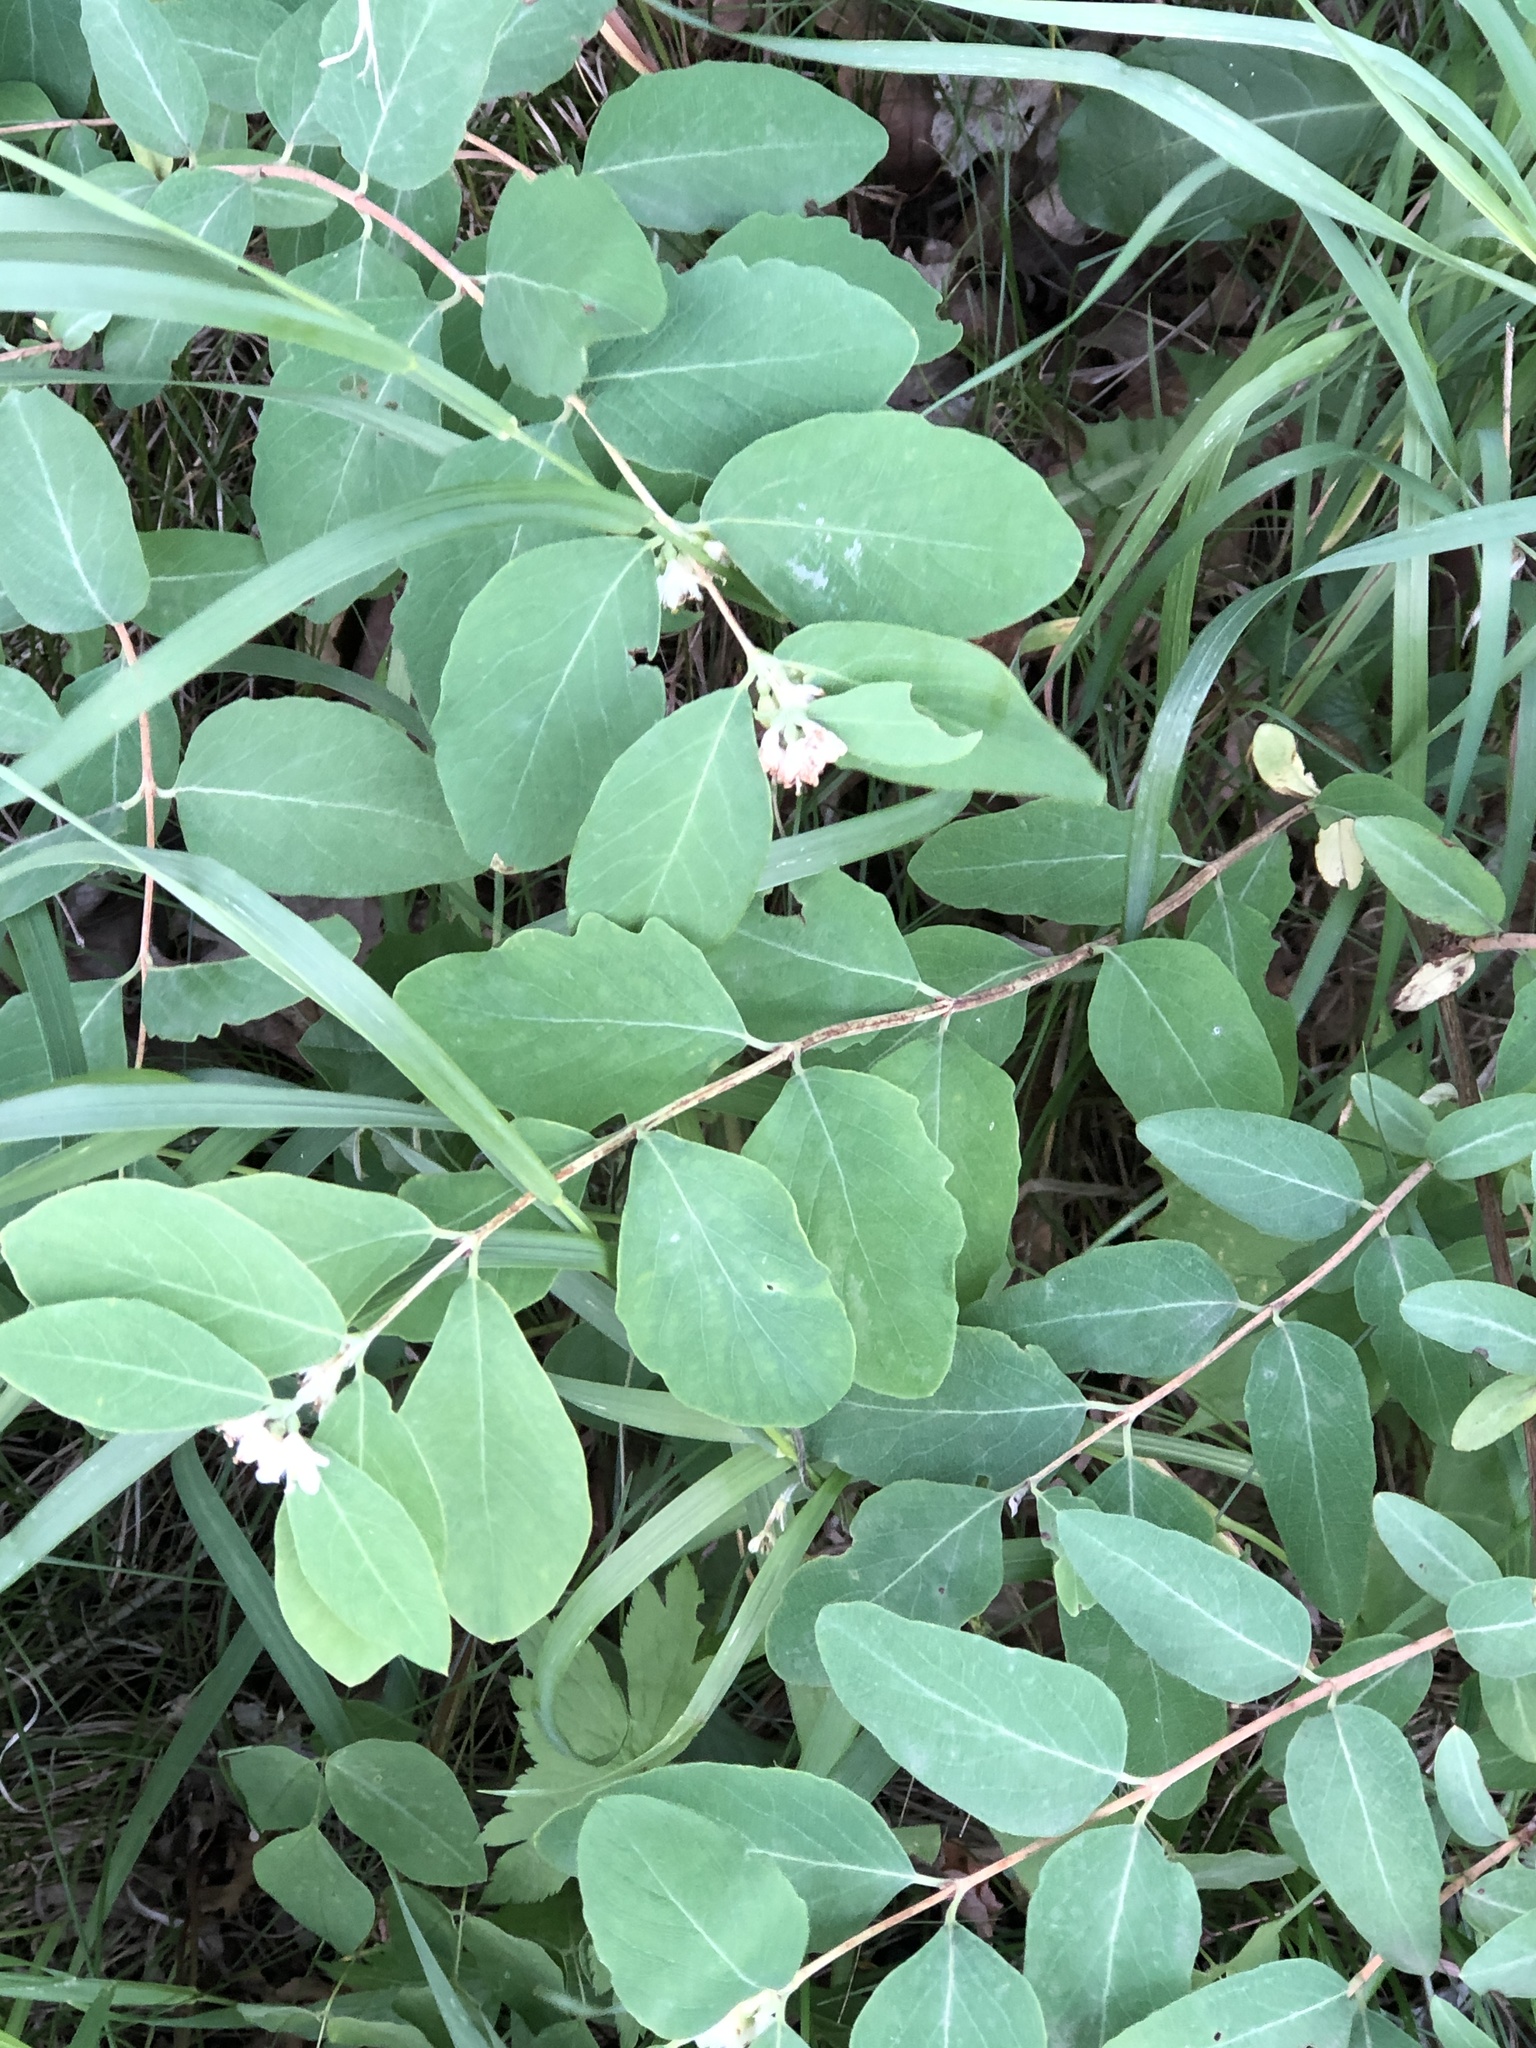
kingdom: Plantae
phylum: Tracheophyta
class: Magnoliopsida
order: Dipsacales
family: Caprifoliaceae
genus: Symphoricarpos
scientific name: Symphoricarpos occidentalis
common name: Wolfberry
